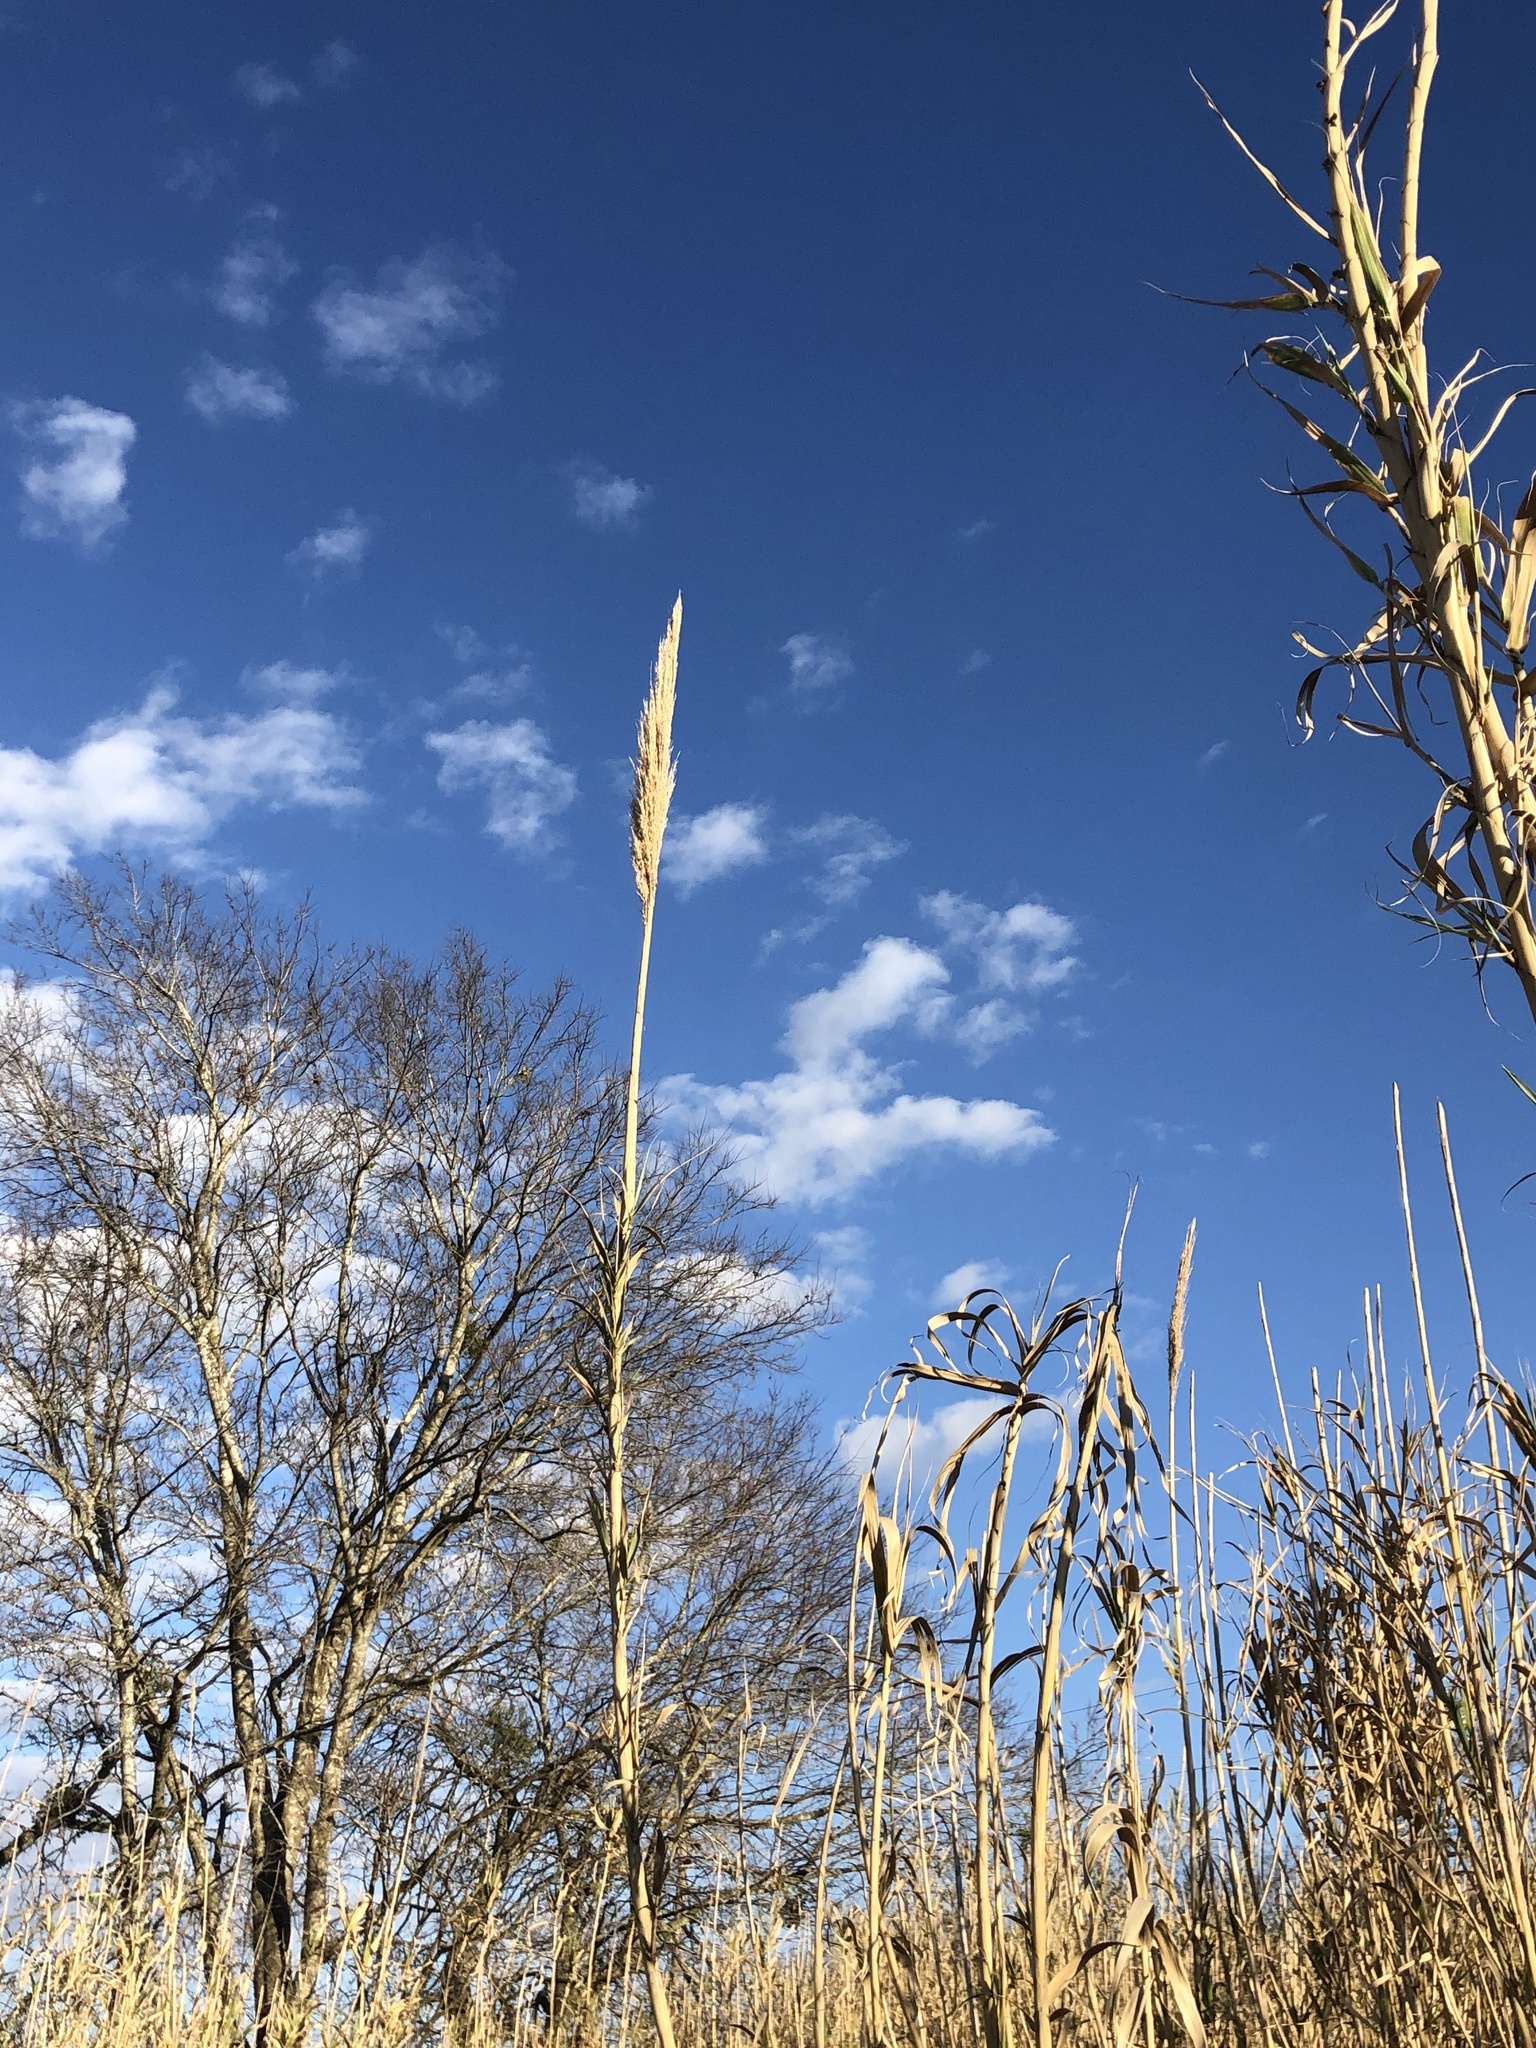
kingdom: Plantae
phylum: Tracheophyta
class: Liliopsida
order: Poales
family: Poaceae
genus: Arundo
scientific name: Arundo donax
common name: Giant reed
